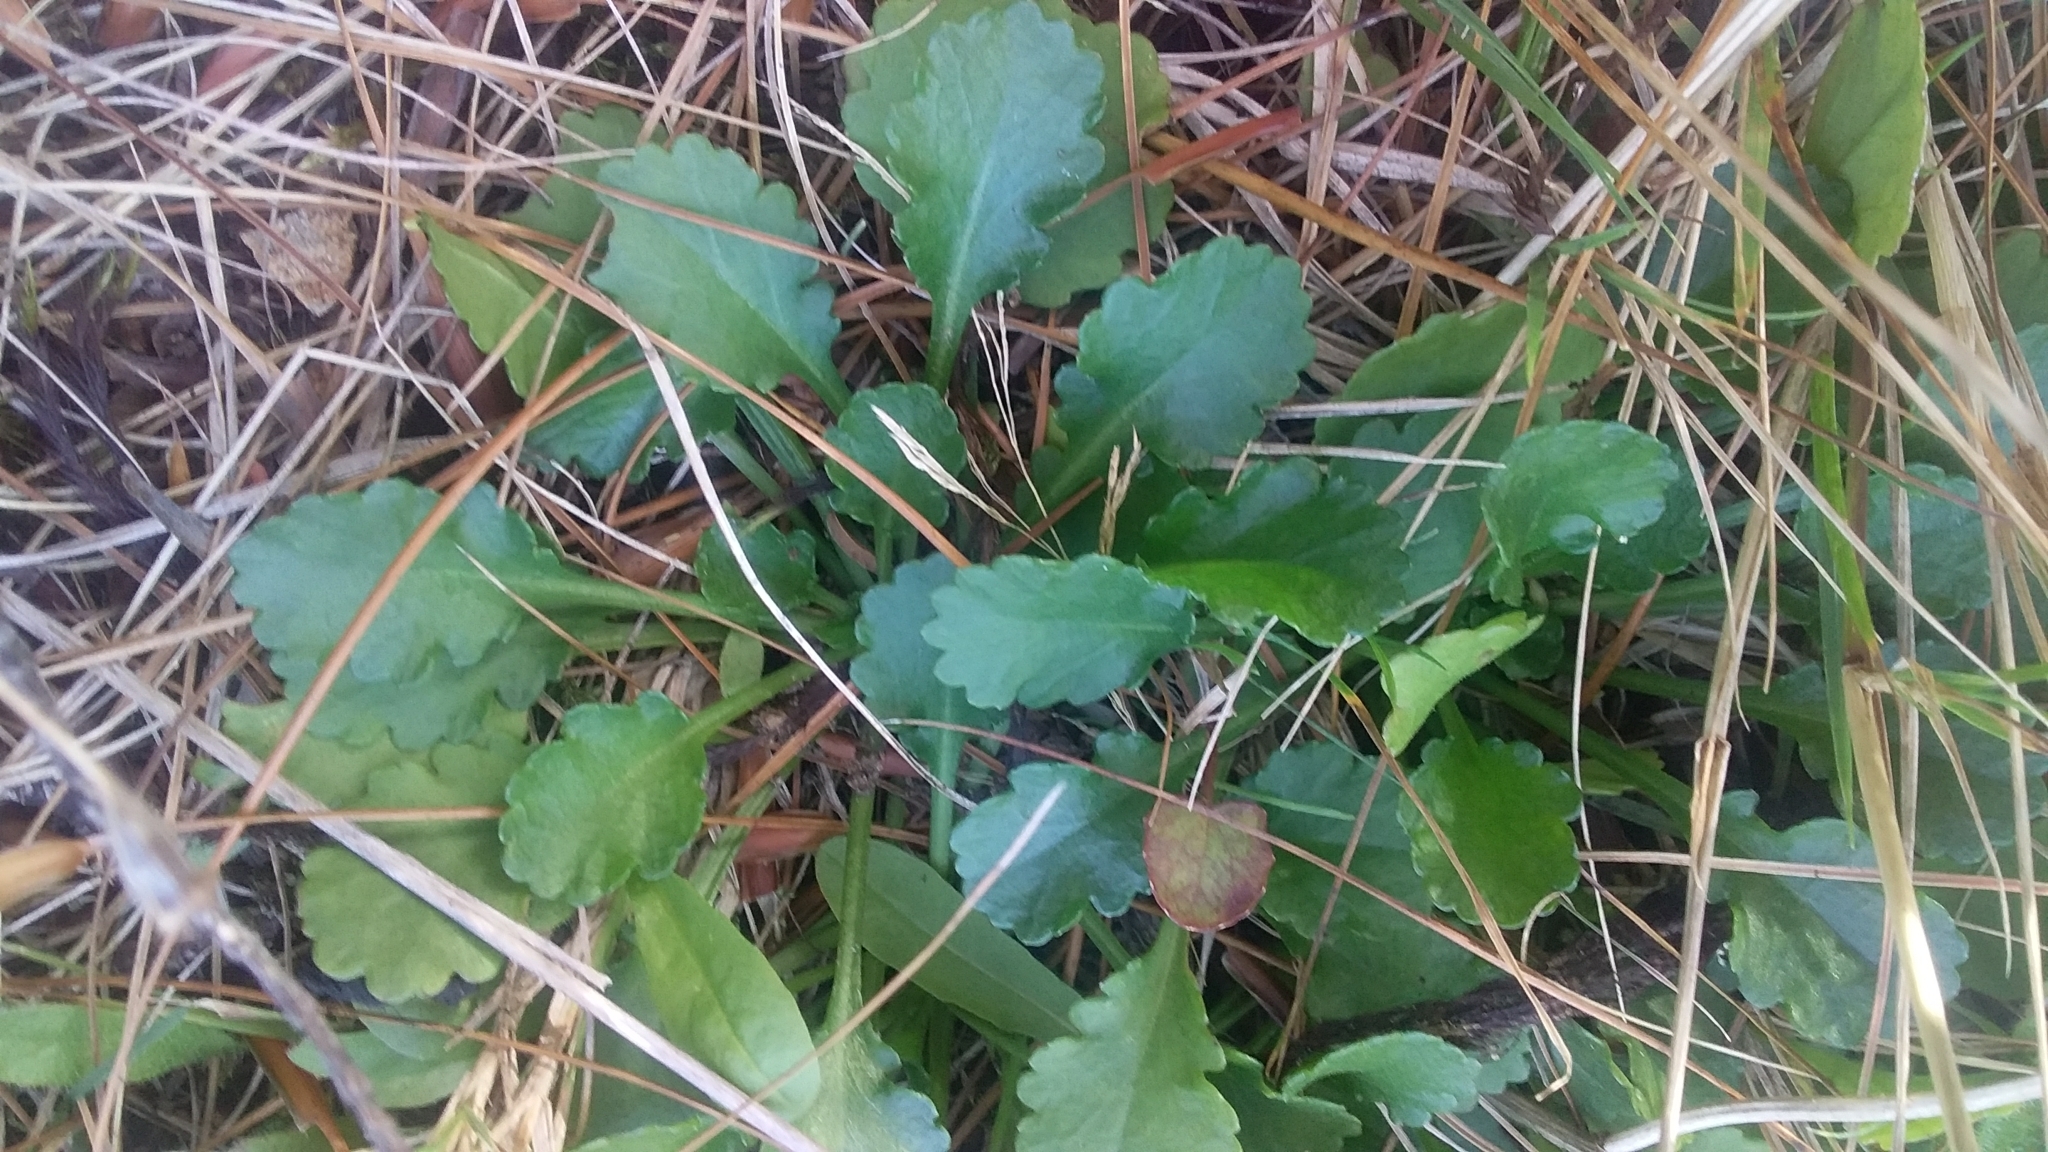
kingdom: Plantae
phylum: Tracheophyta
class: Magnoliopsida
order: Asterales
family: Asteraceae
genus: Leucanthemum
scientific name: Leucanthemum vulgare
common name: Oxeye daisy
